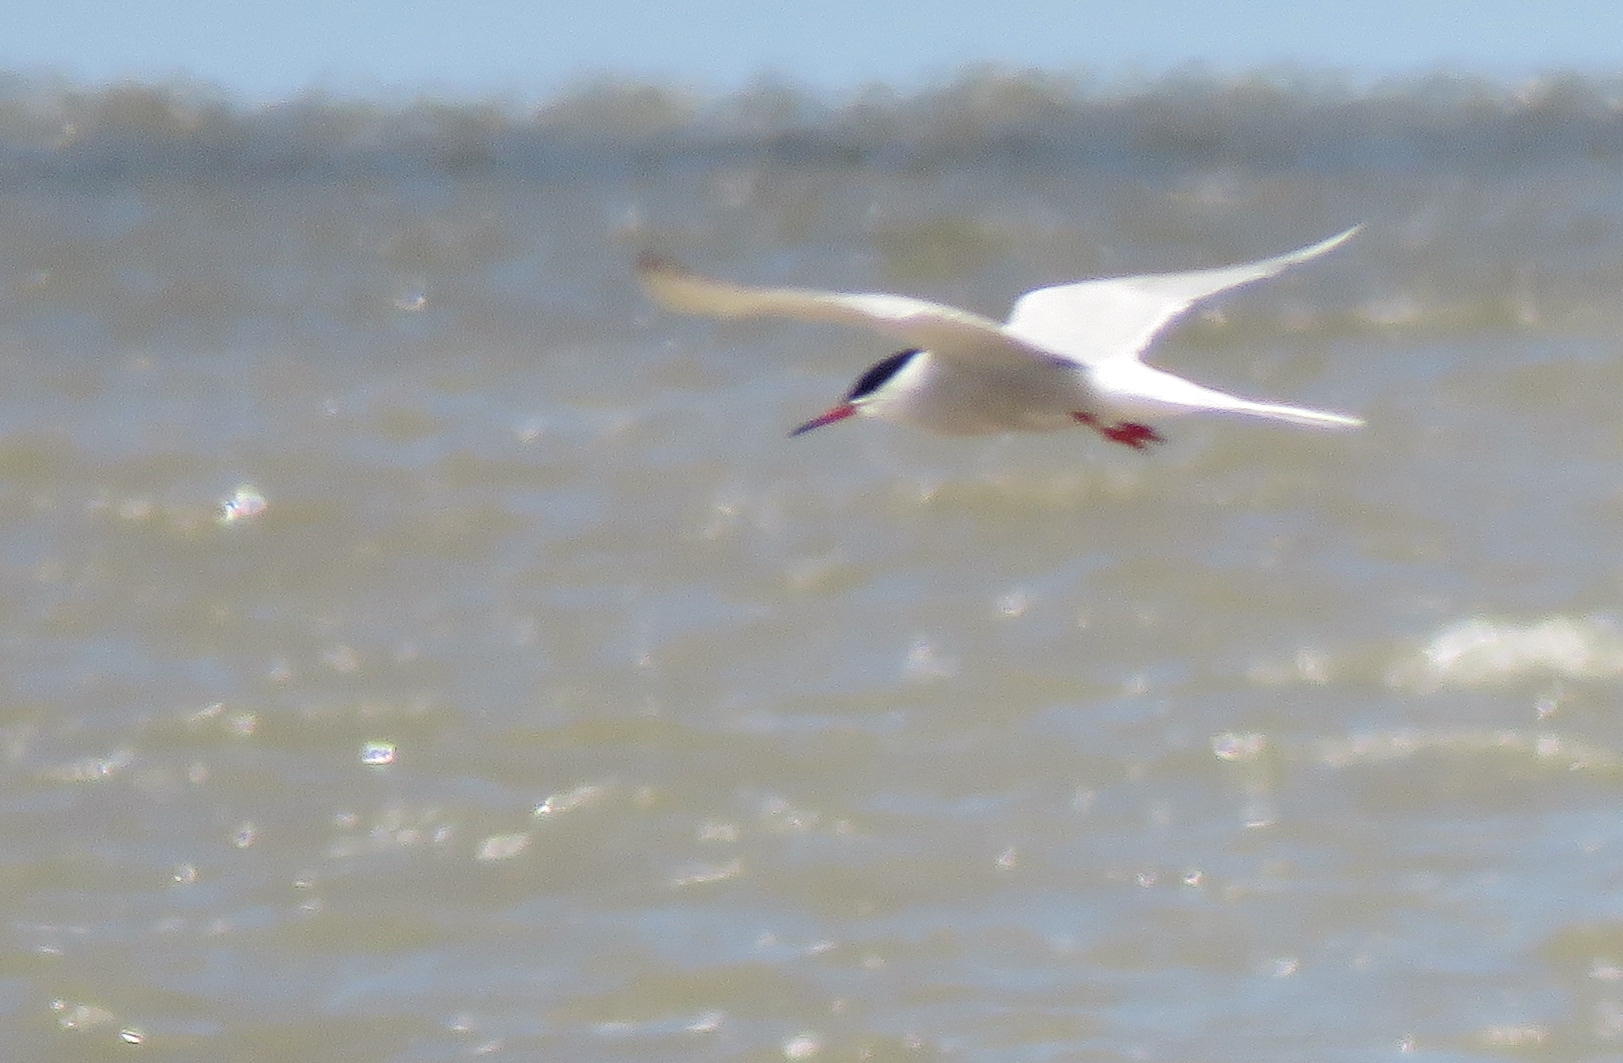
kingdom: Animalia
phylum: Chordata
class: Aves
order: Charadriiformes
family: Laridae
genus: Sterna
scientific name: Sterna hirundo
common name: Common tern
